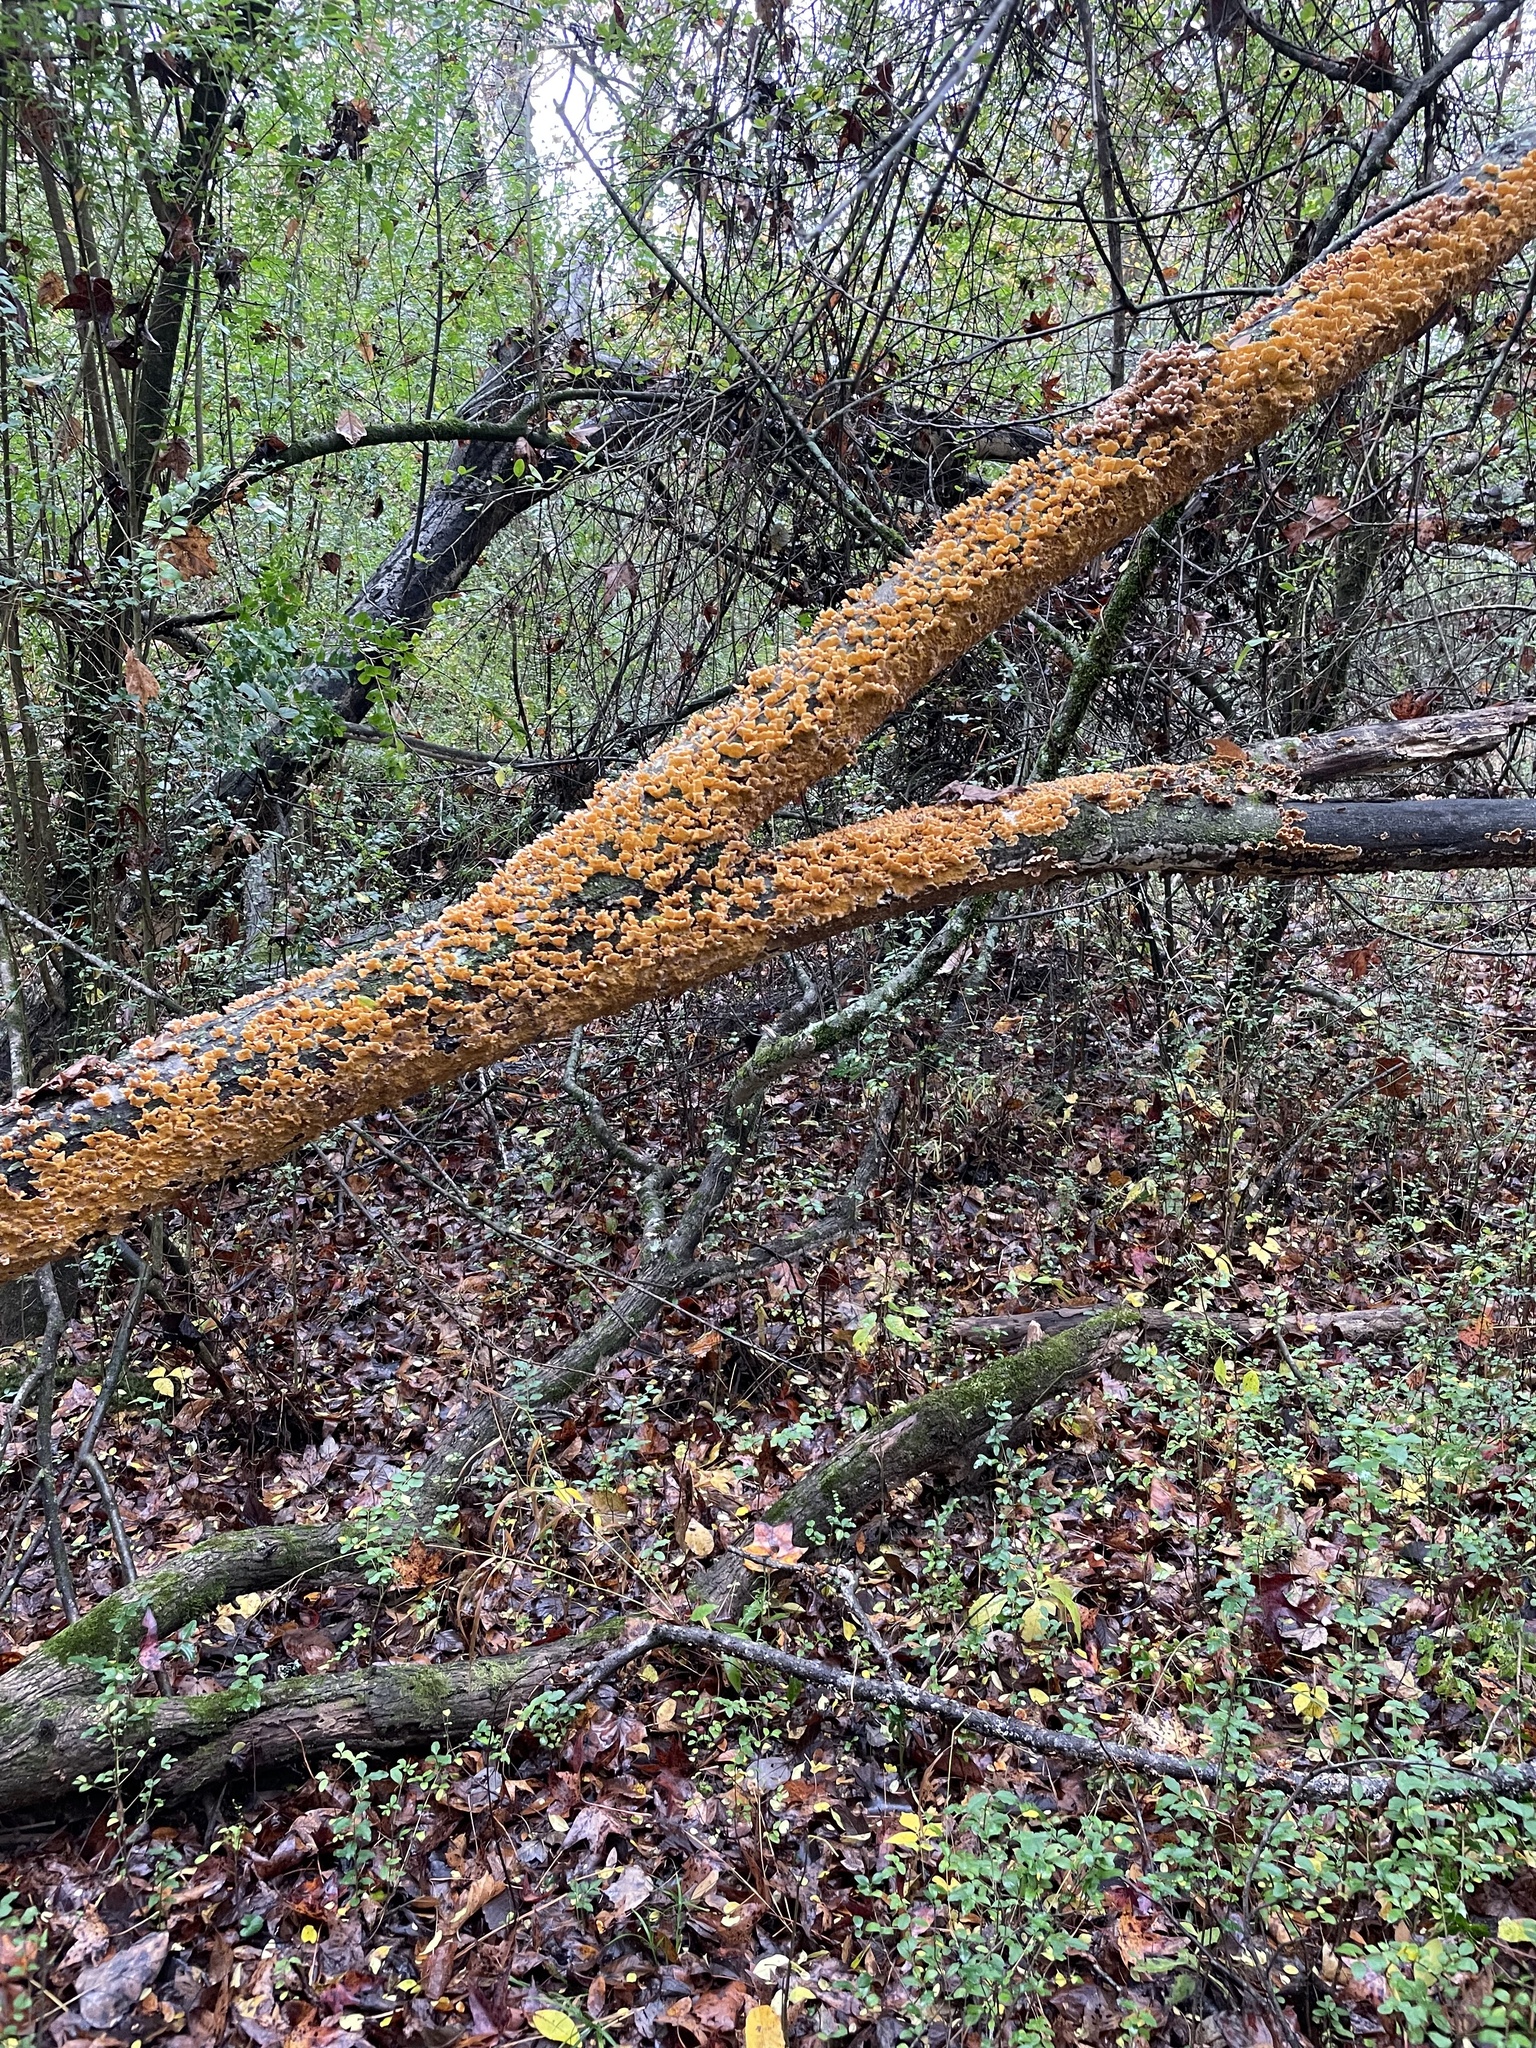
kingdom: Fungi
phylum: Basidiomycota
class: Agaricomycetes
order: Russulales
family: Stereaceae
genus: Stereum
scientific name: Stereum complicatum
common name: Crowded parchment
